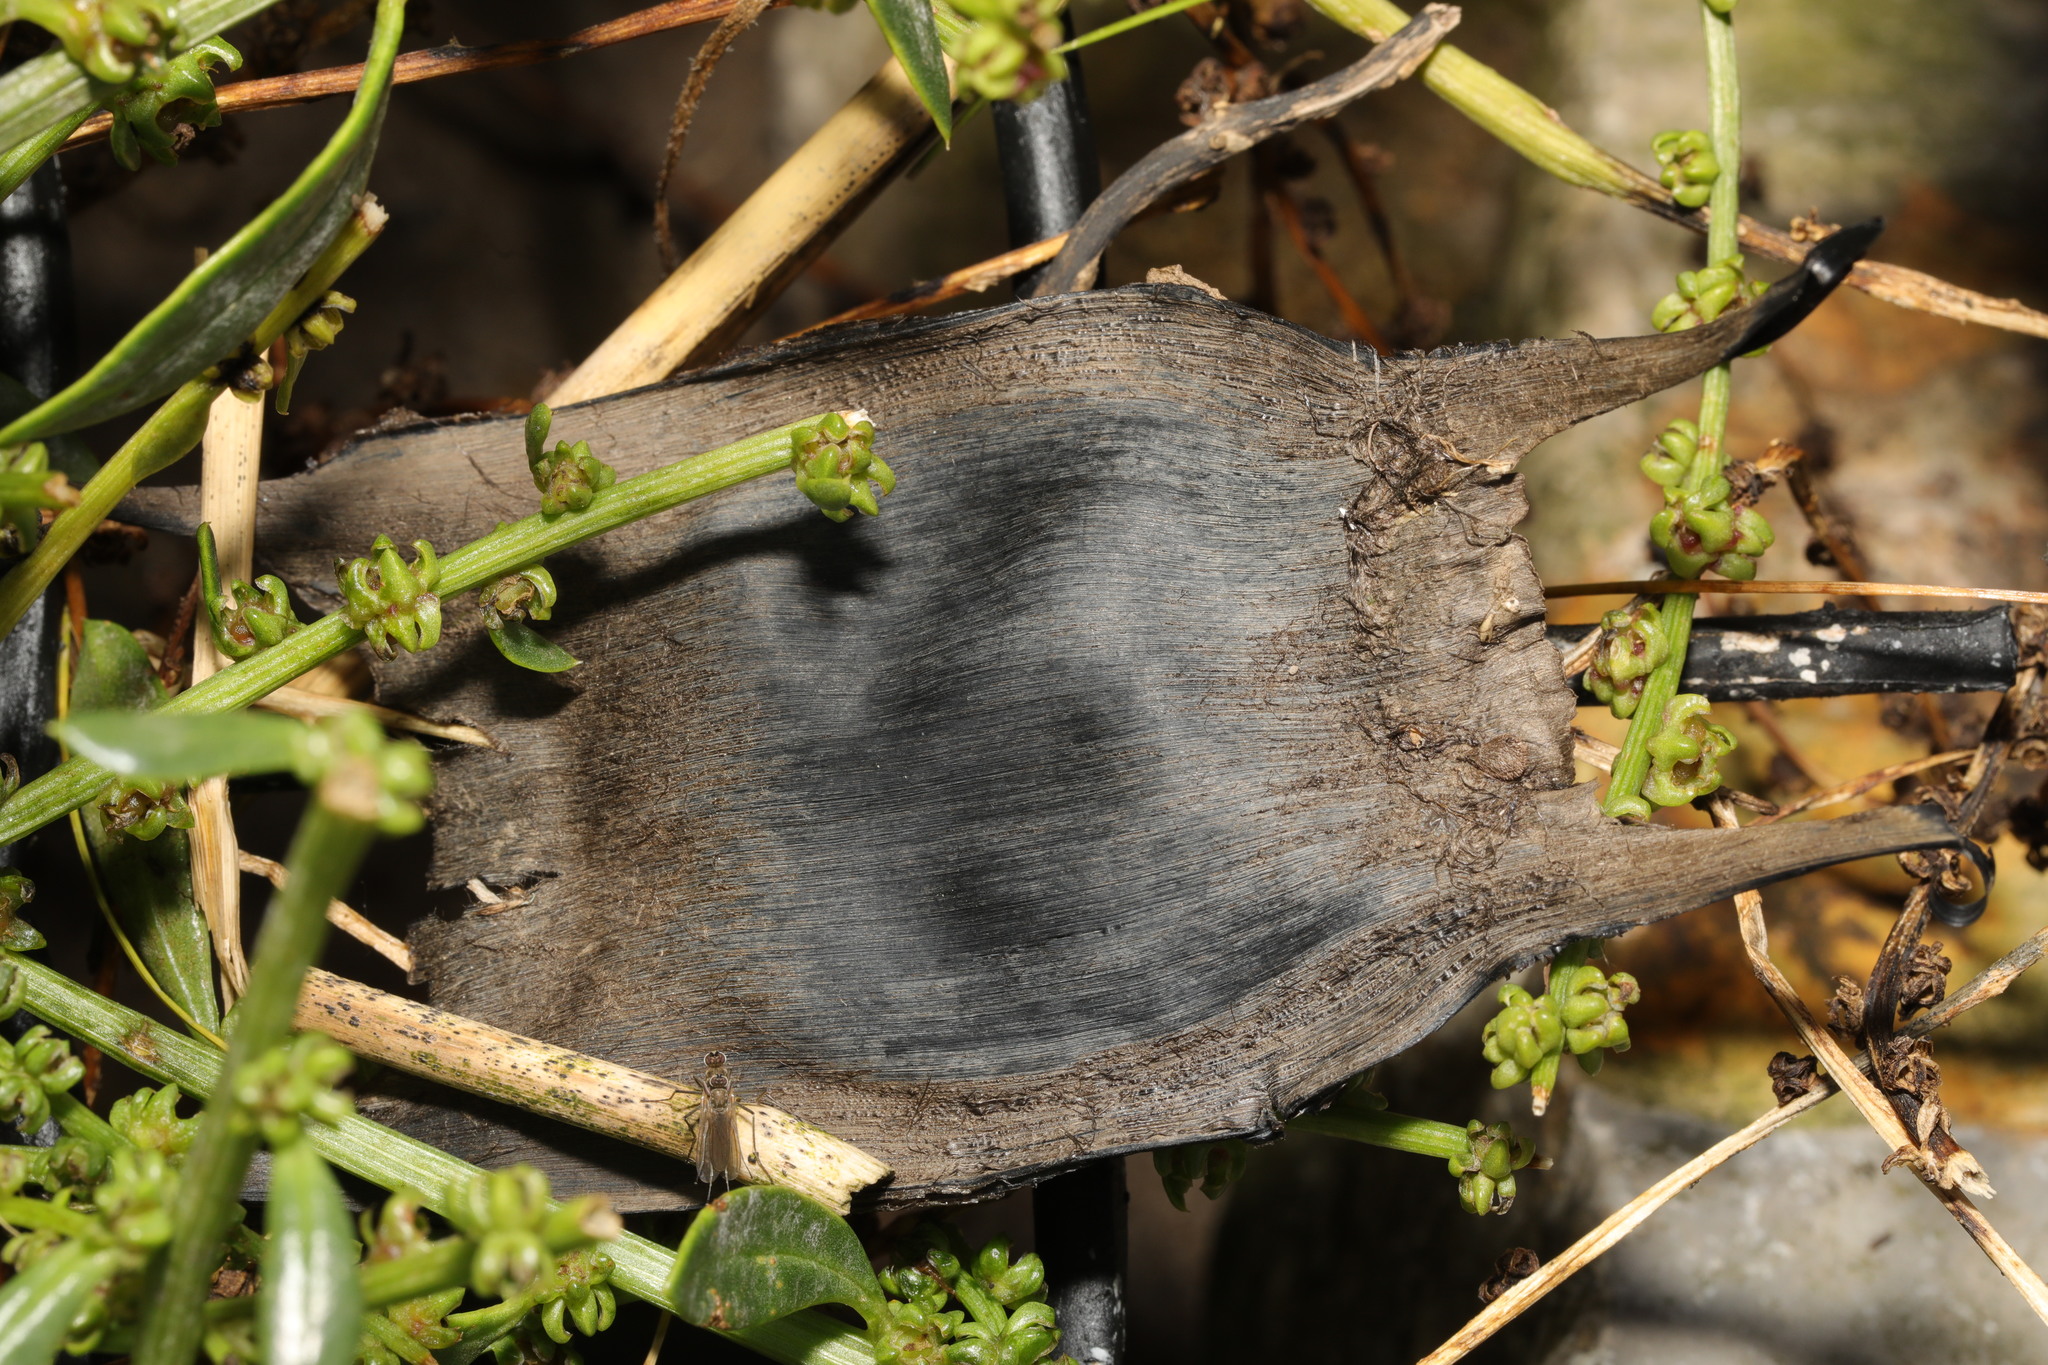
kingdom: Animalia
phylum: Chordata
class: Elasmobranchii
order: Rajiformes
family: Rajidae
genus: Raja
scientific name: Raja clavata
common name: Thornback ray
